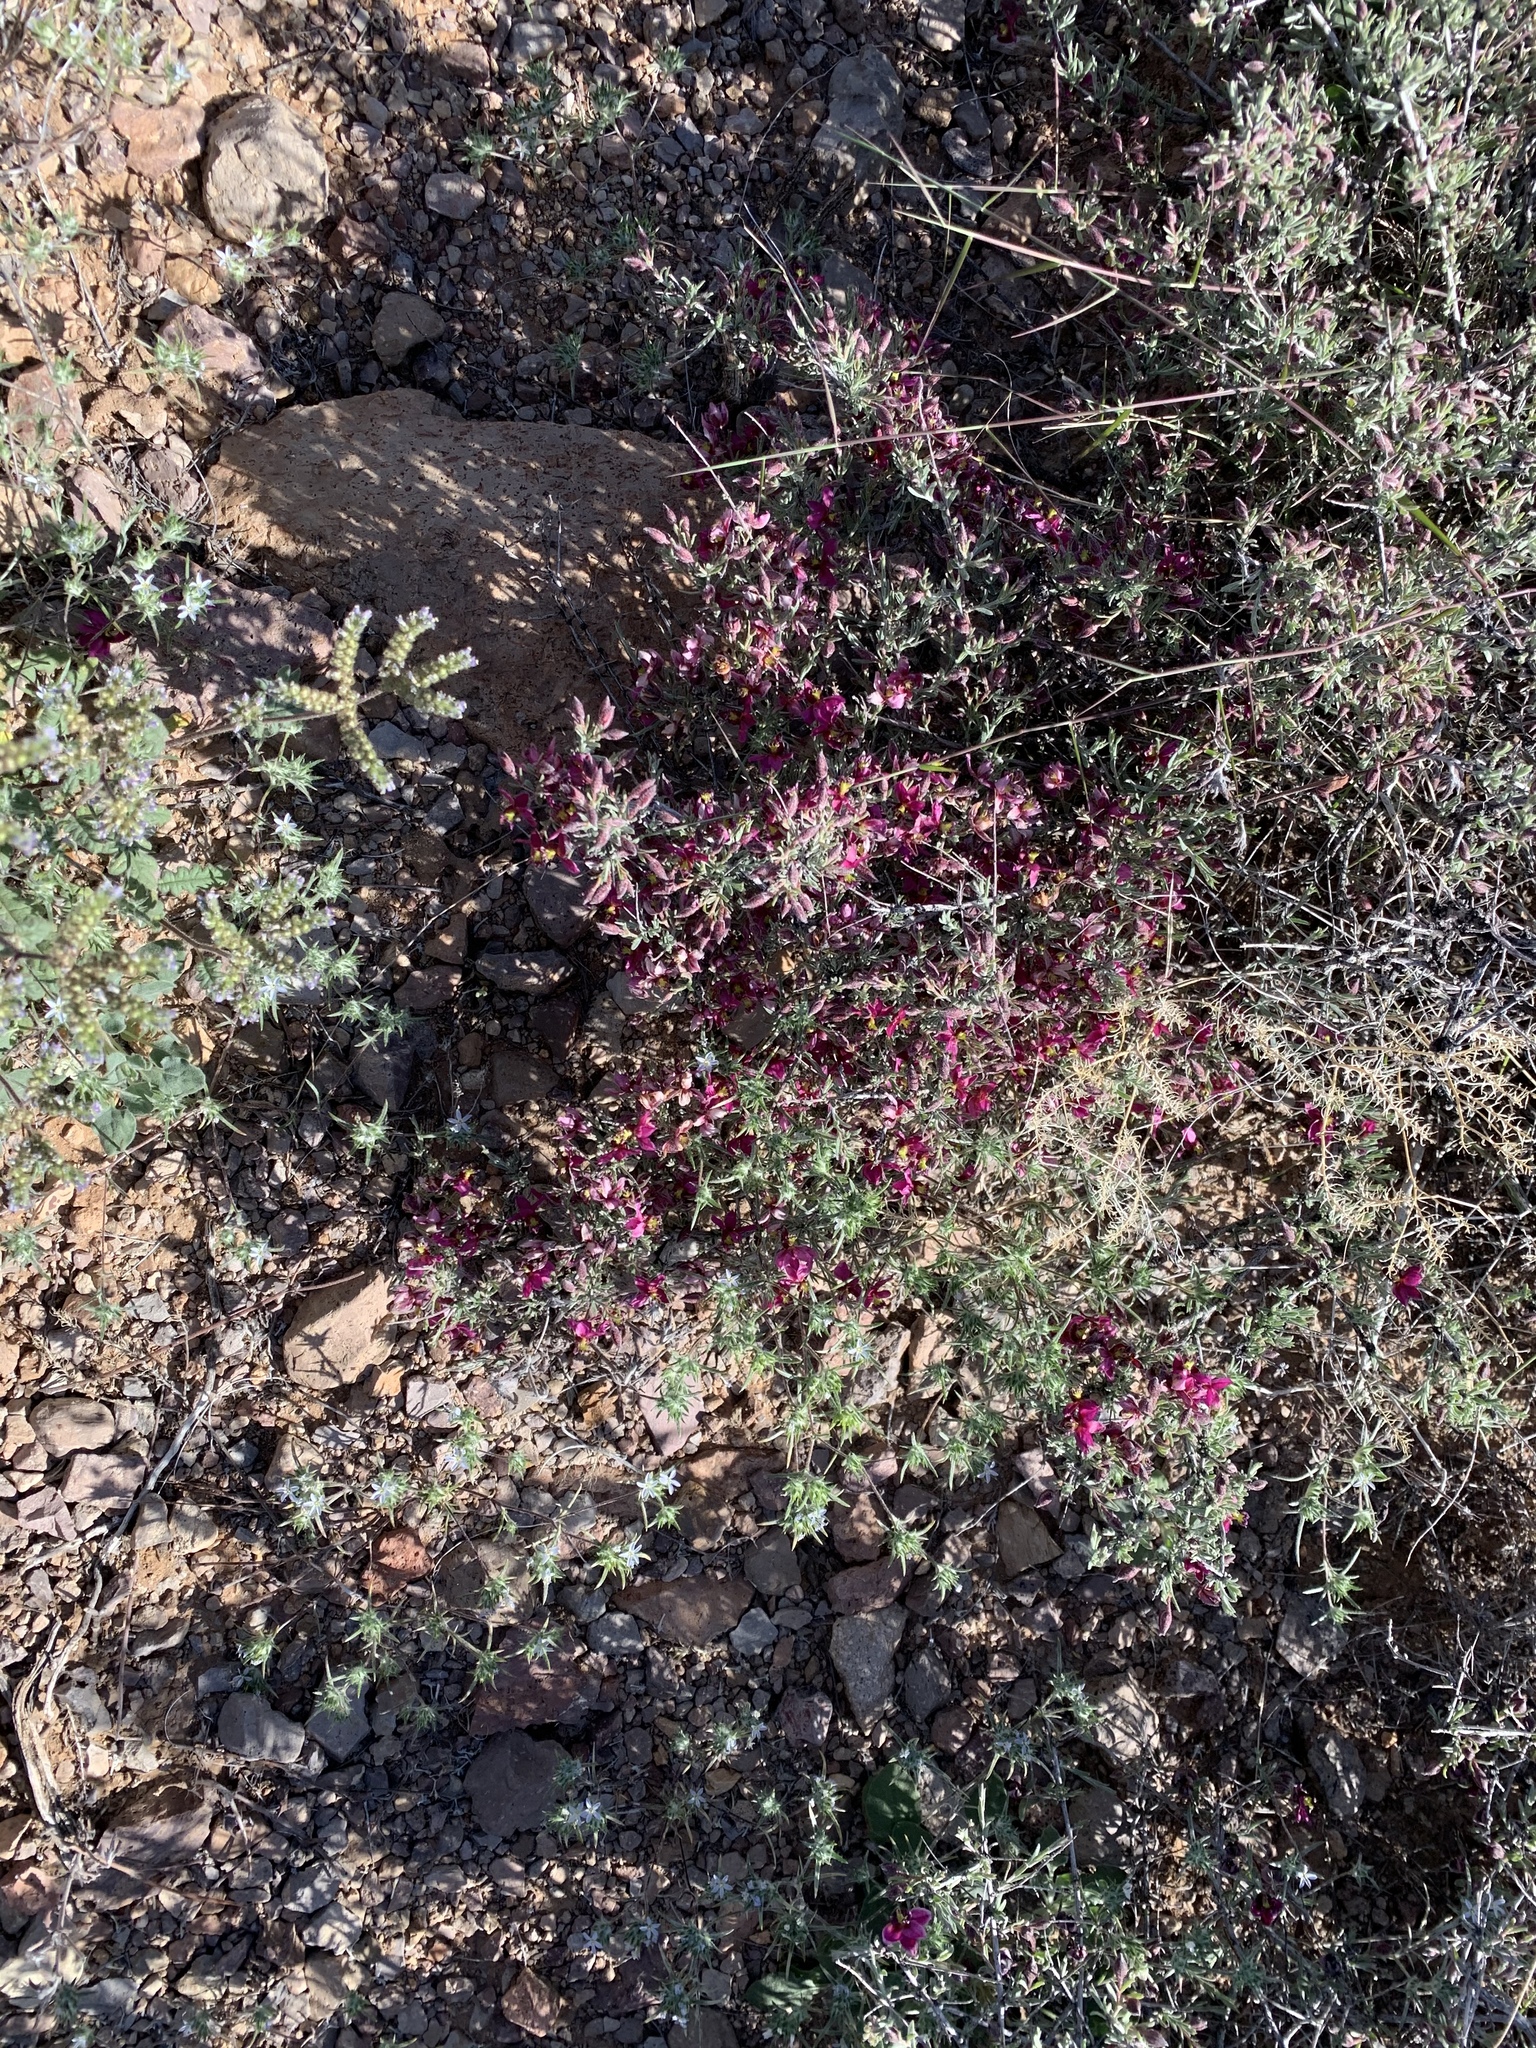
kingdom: Plantae
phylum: Tracheophyta
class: Magnoliopsida
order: Zygophyllales
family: Krameriaceae
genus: Krameria
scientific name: Krameria erecta
